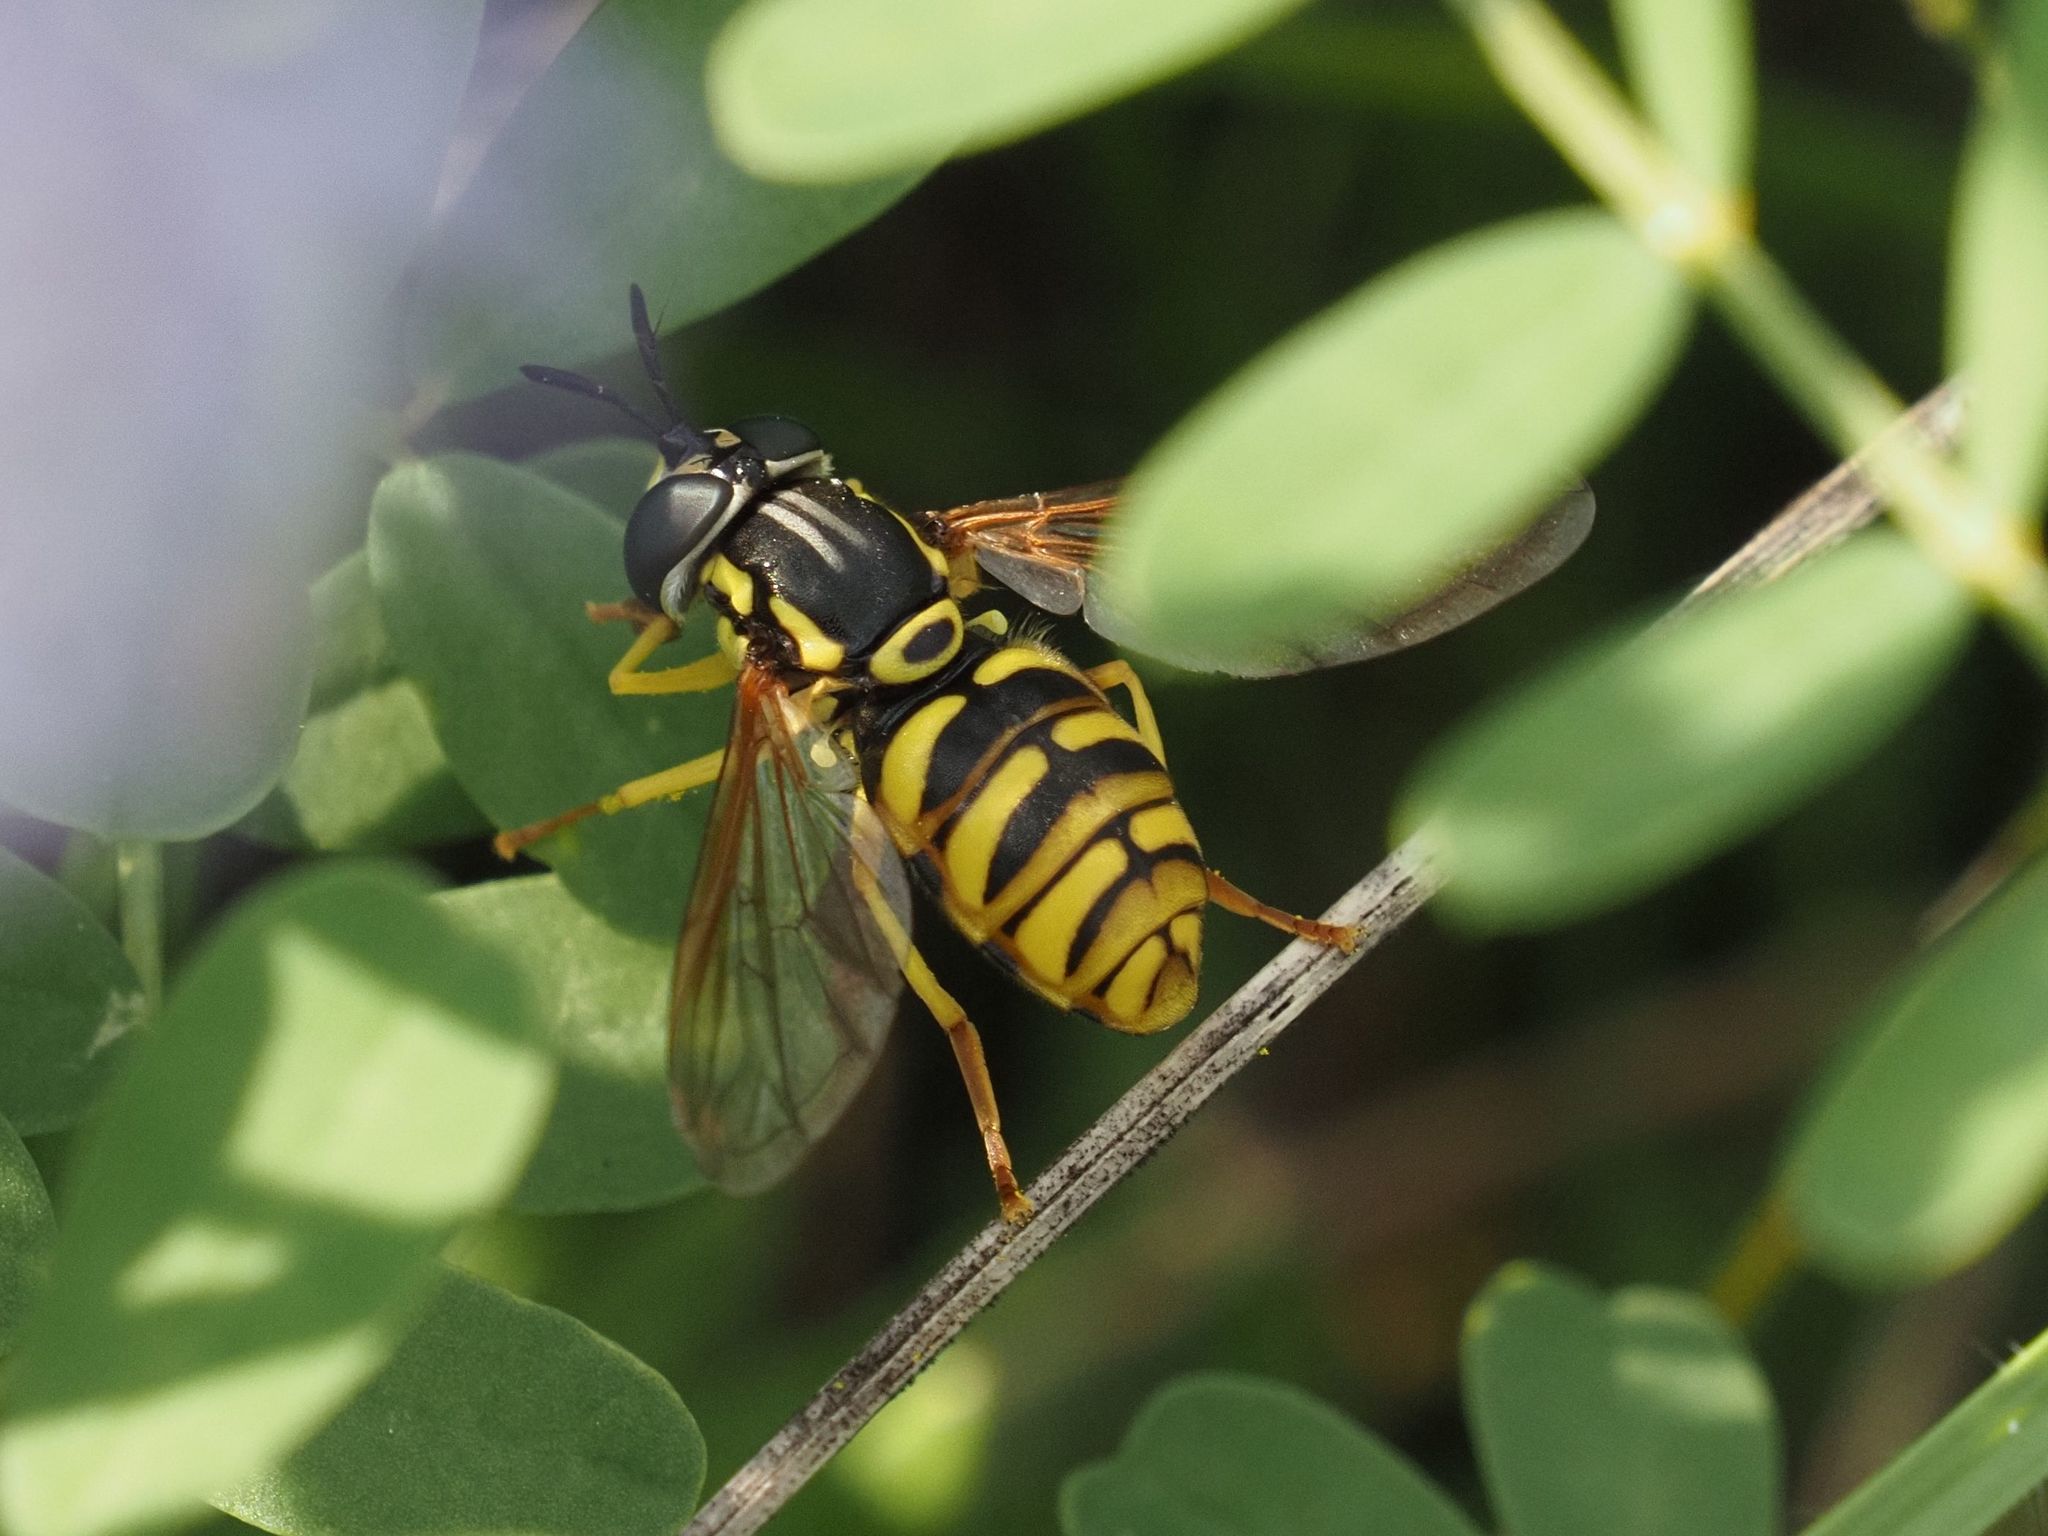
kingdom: Animalia
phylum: Arthropoda
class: Insecta
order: Diptera
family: Syrphidae
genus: Chrysotoxum
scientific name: Chrysotoxum octomaculatum
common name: Broken-banded wasp-hoverfly
